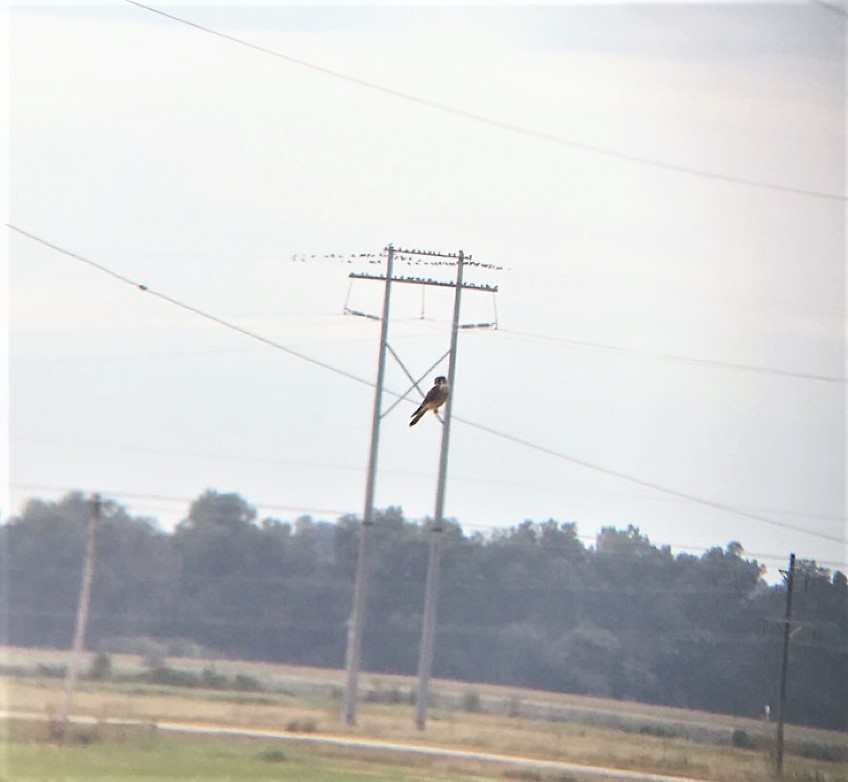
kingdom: Animalia
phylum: Chordata
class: Aves
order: Falconiformes
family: Falconidae
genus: Falco
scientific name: Falco sparverius
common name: American kestrel
